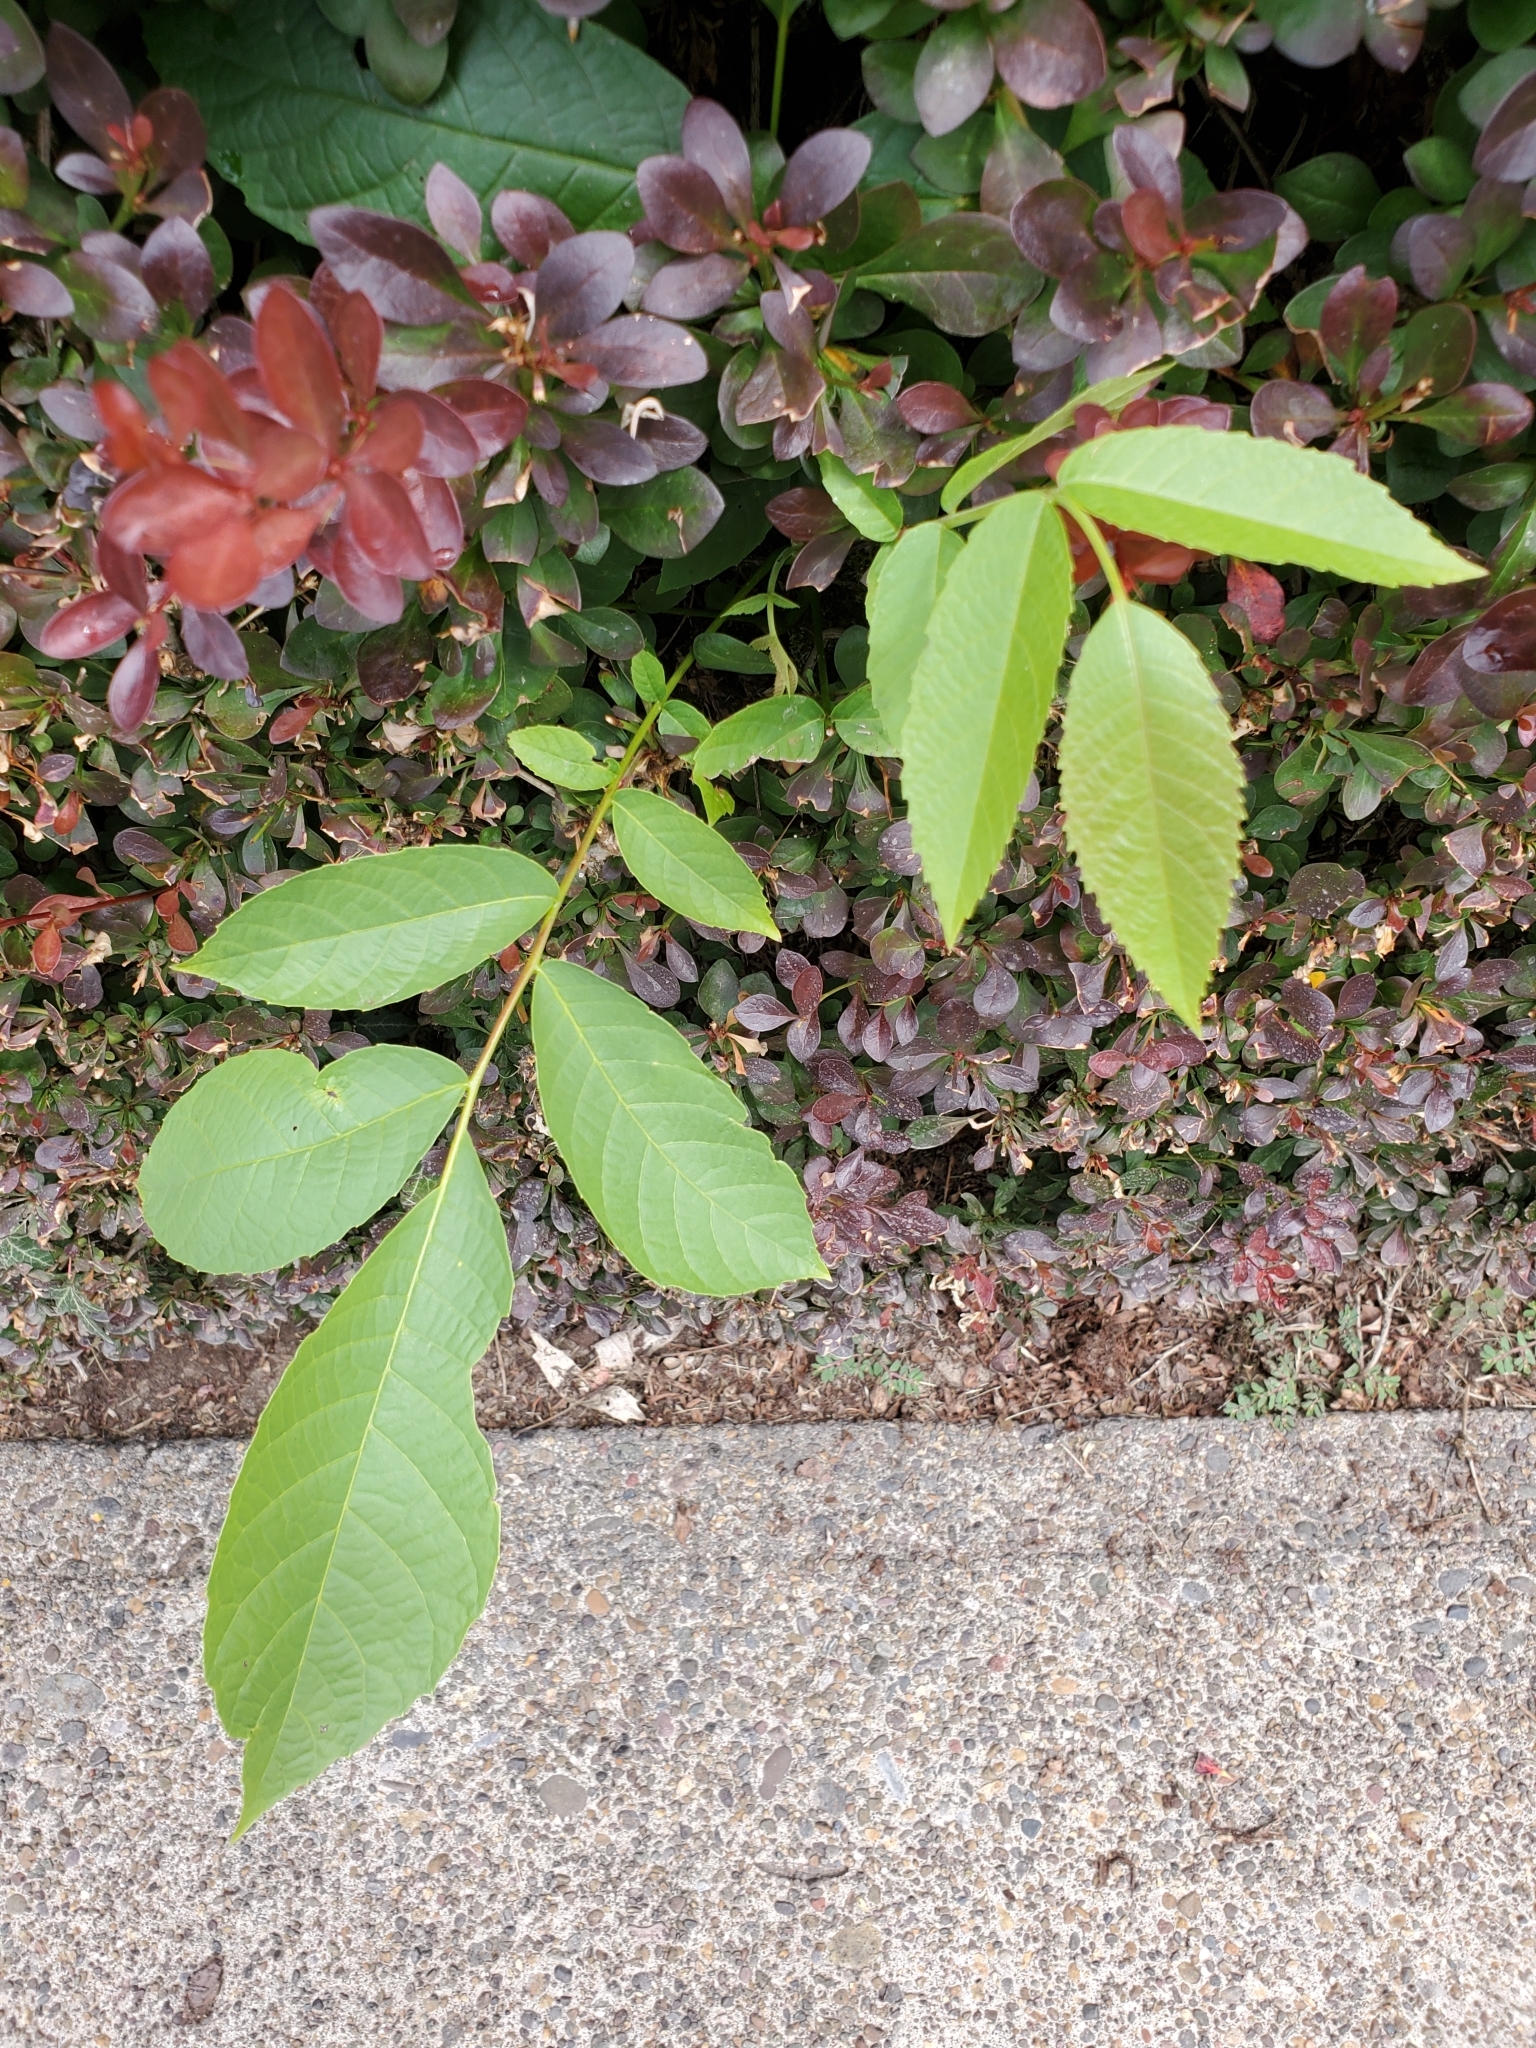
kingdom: Plantae
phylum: Tracheophyta
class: Magnoliopsida
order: Fagales
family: Juglandaceae
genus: Juglans
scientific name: Juglans regia
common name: Walnut
